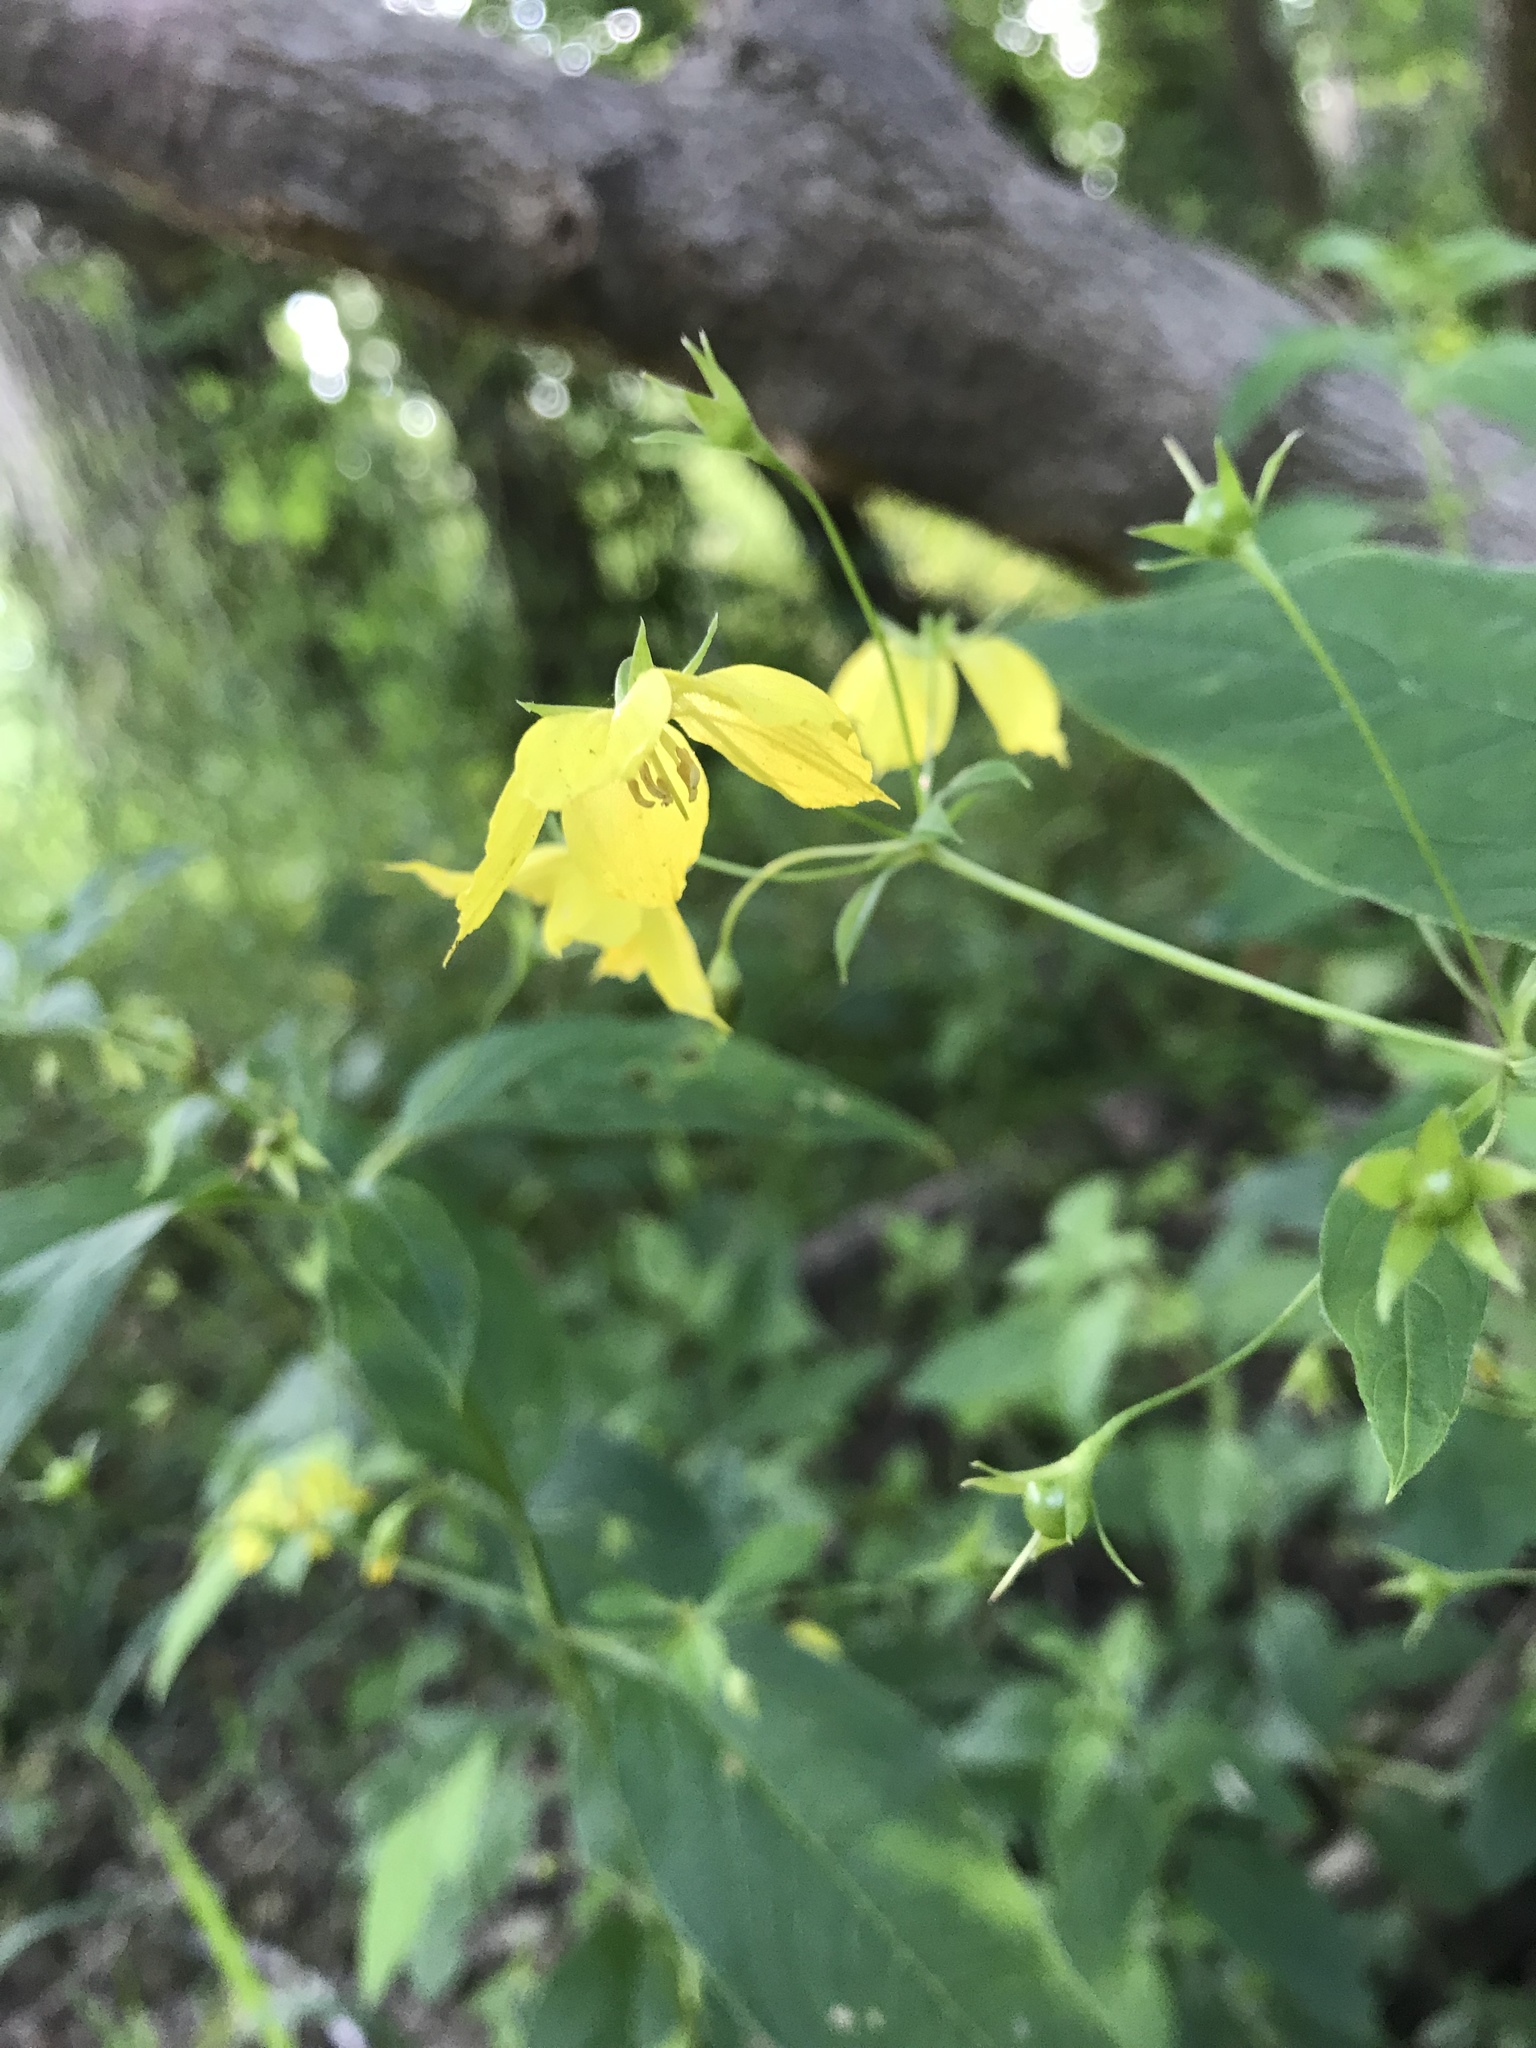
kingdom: Plantae
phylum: Tracheophyta
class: Magnoliopsida
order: Ericales
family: Primulaceae
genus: Lysimachia
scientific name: Lysimachia ciliata
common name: Fringed loosestrife
